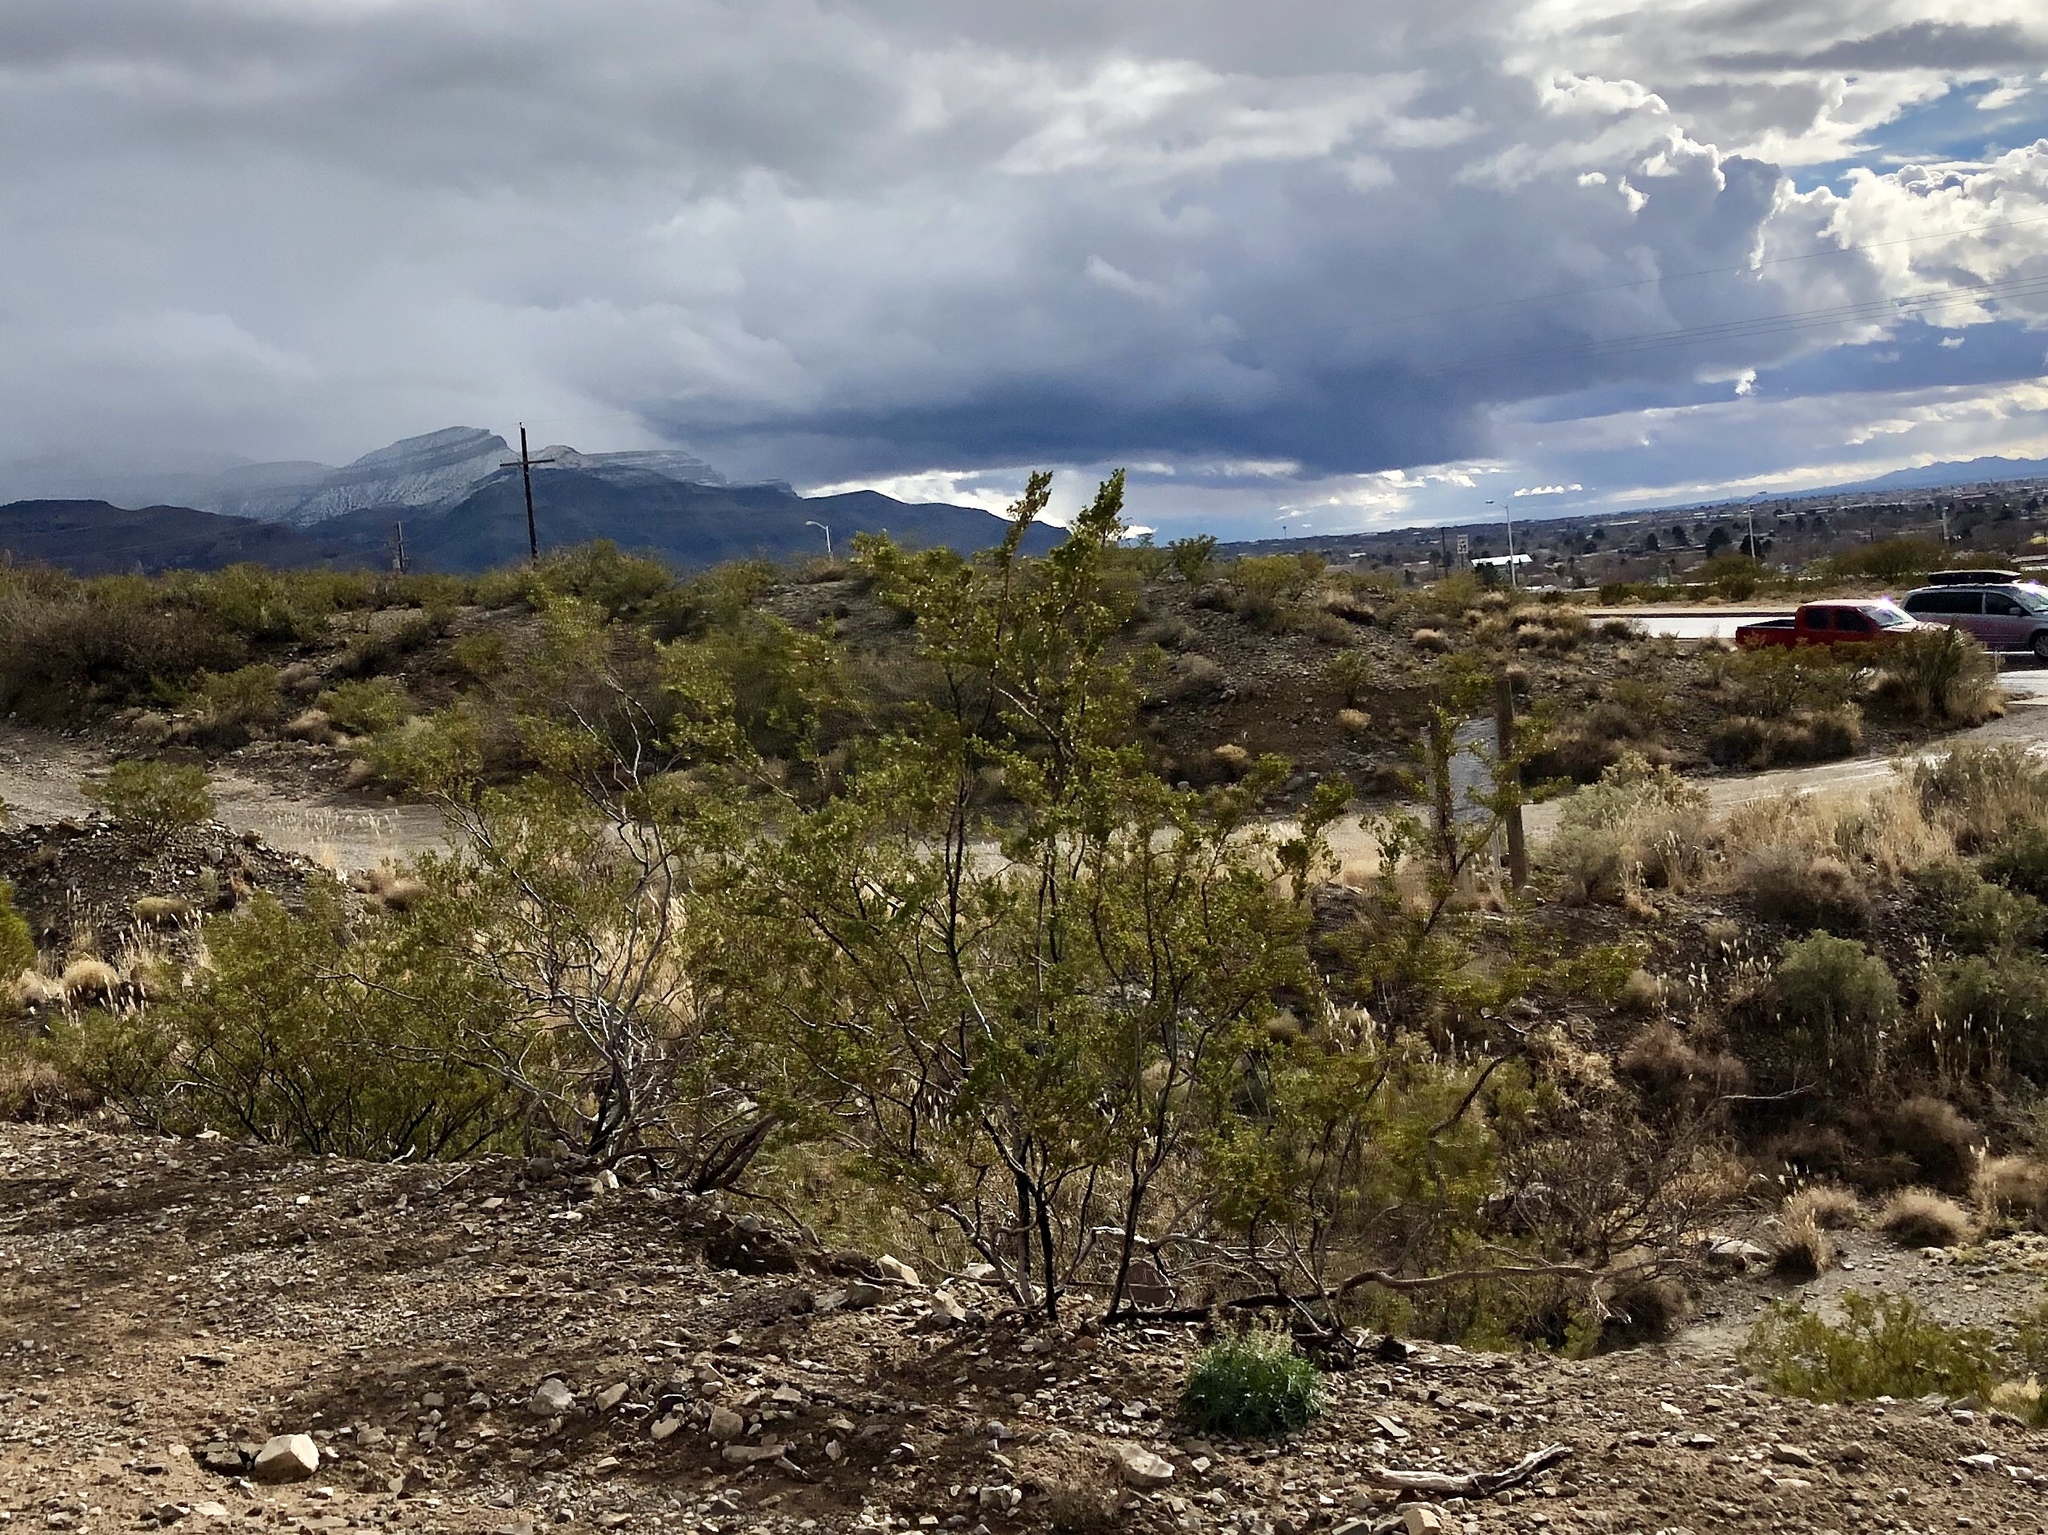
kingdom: Plantae
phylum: Tracheophyta
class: Magnoliopsida
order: Zygophyllales
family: Zygophyllaceae
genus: Larrea
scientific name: Larrea tridentata
